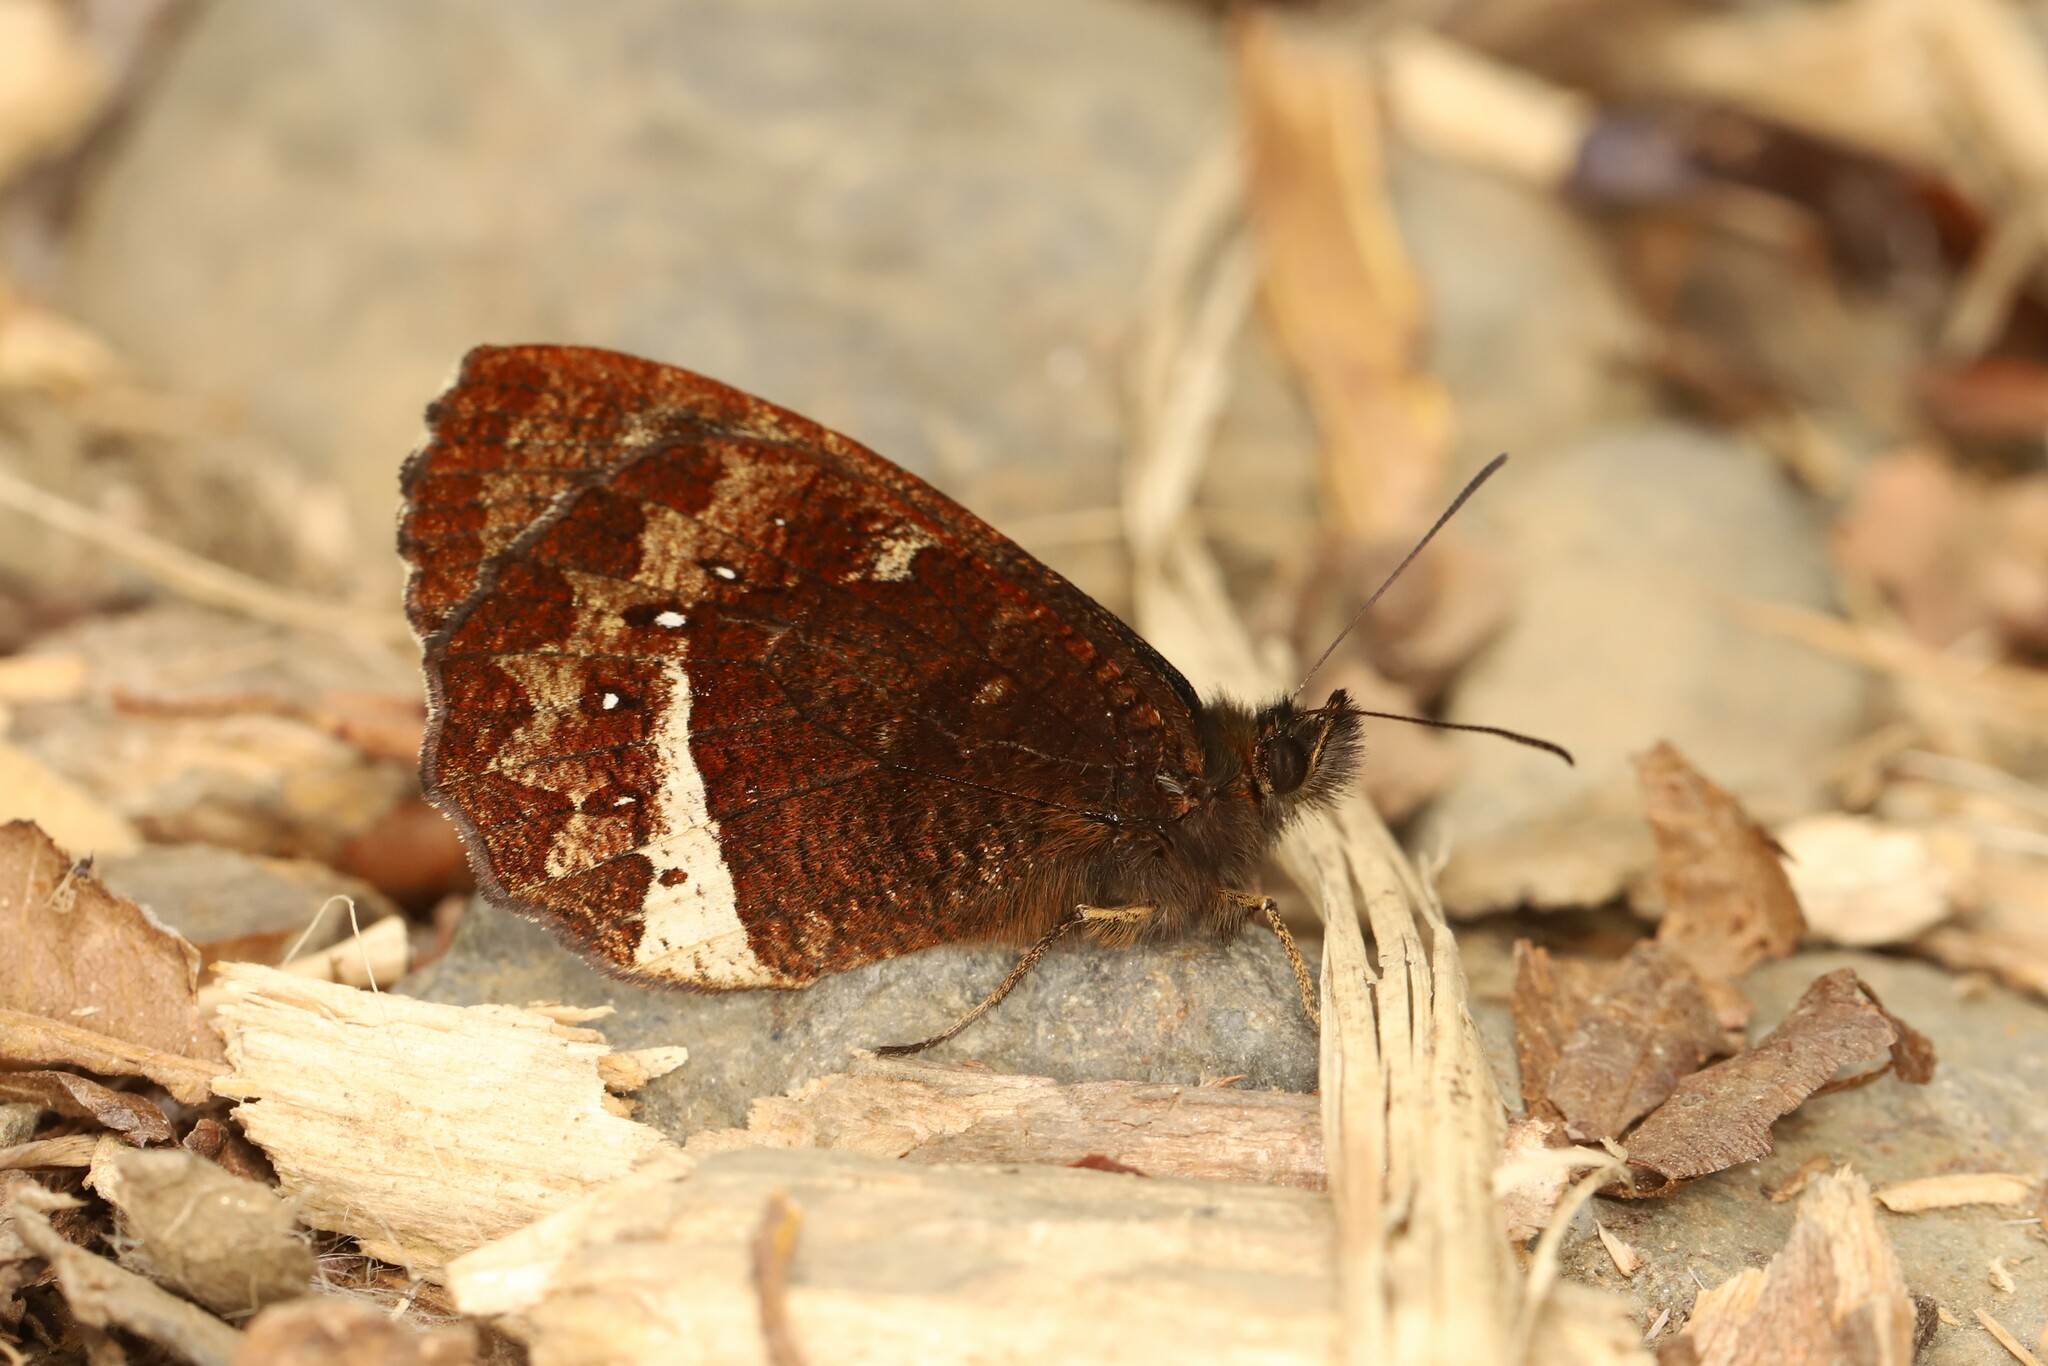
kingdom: Animalia
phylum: Arthropoda
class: Insecta
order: Lepidoptera
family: Nymphalidae
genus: Pedaliodes
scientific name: Pedaliodes phazania
